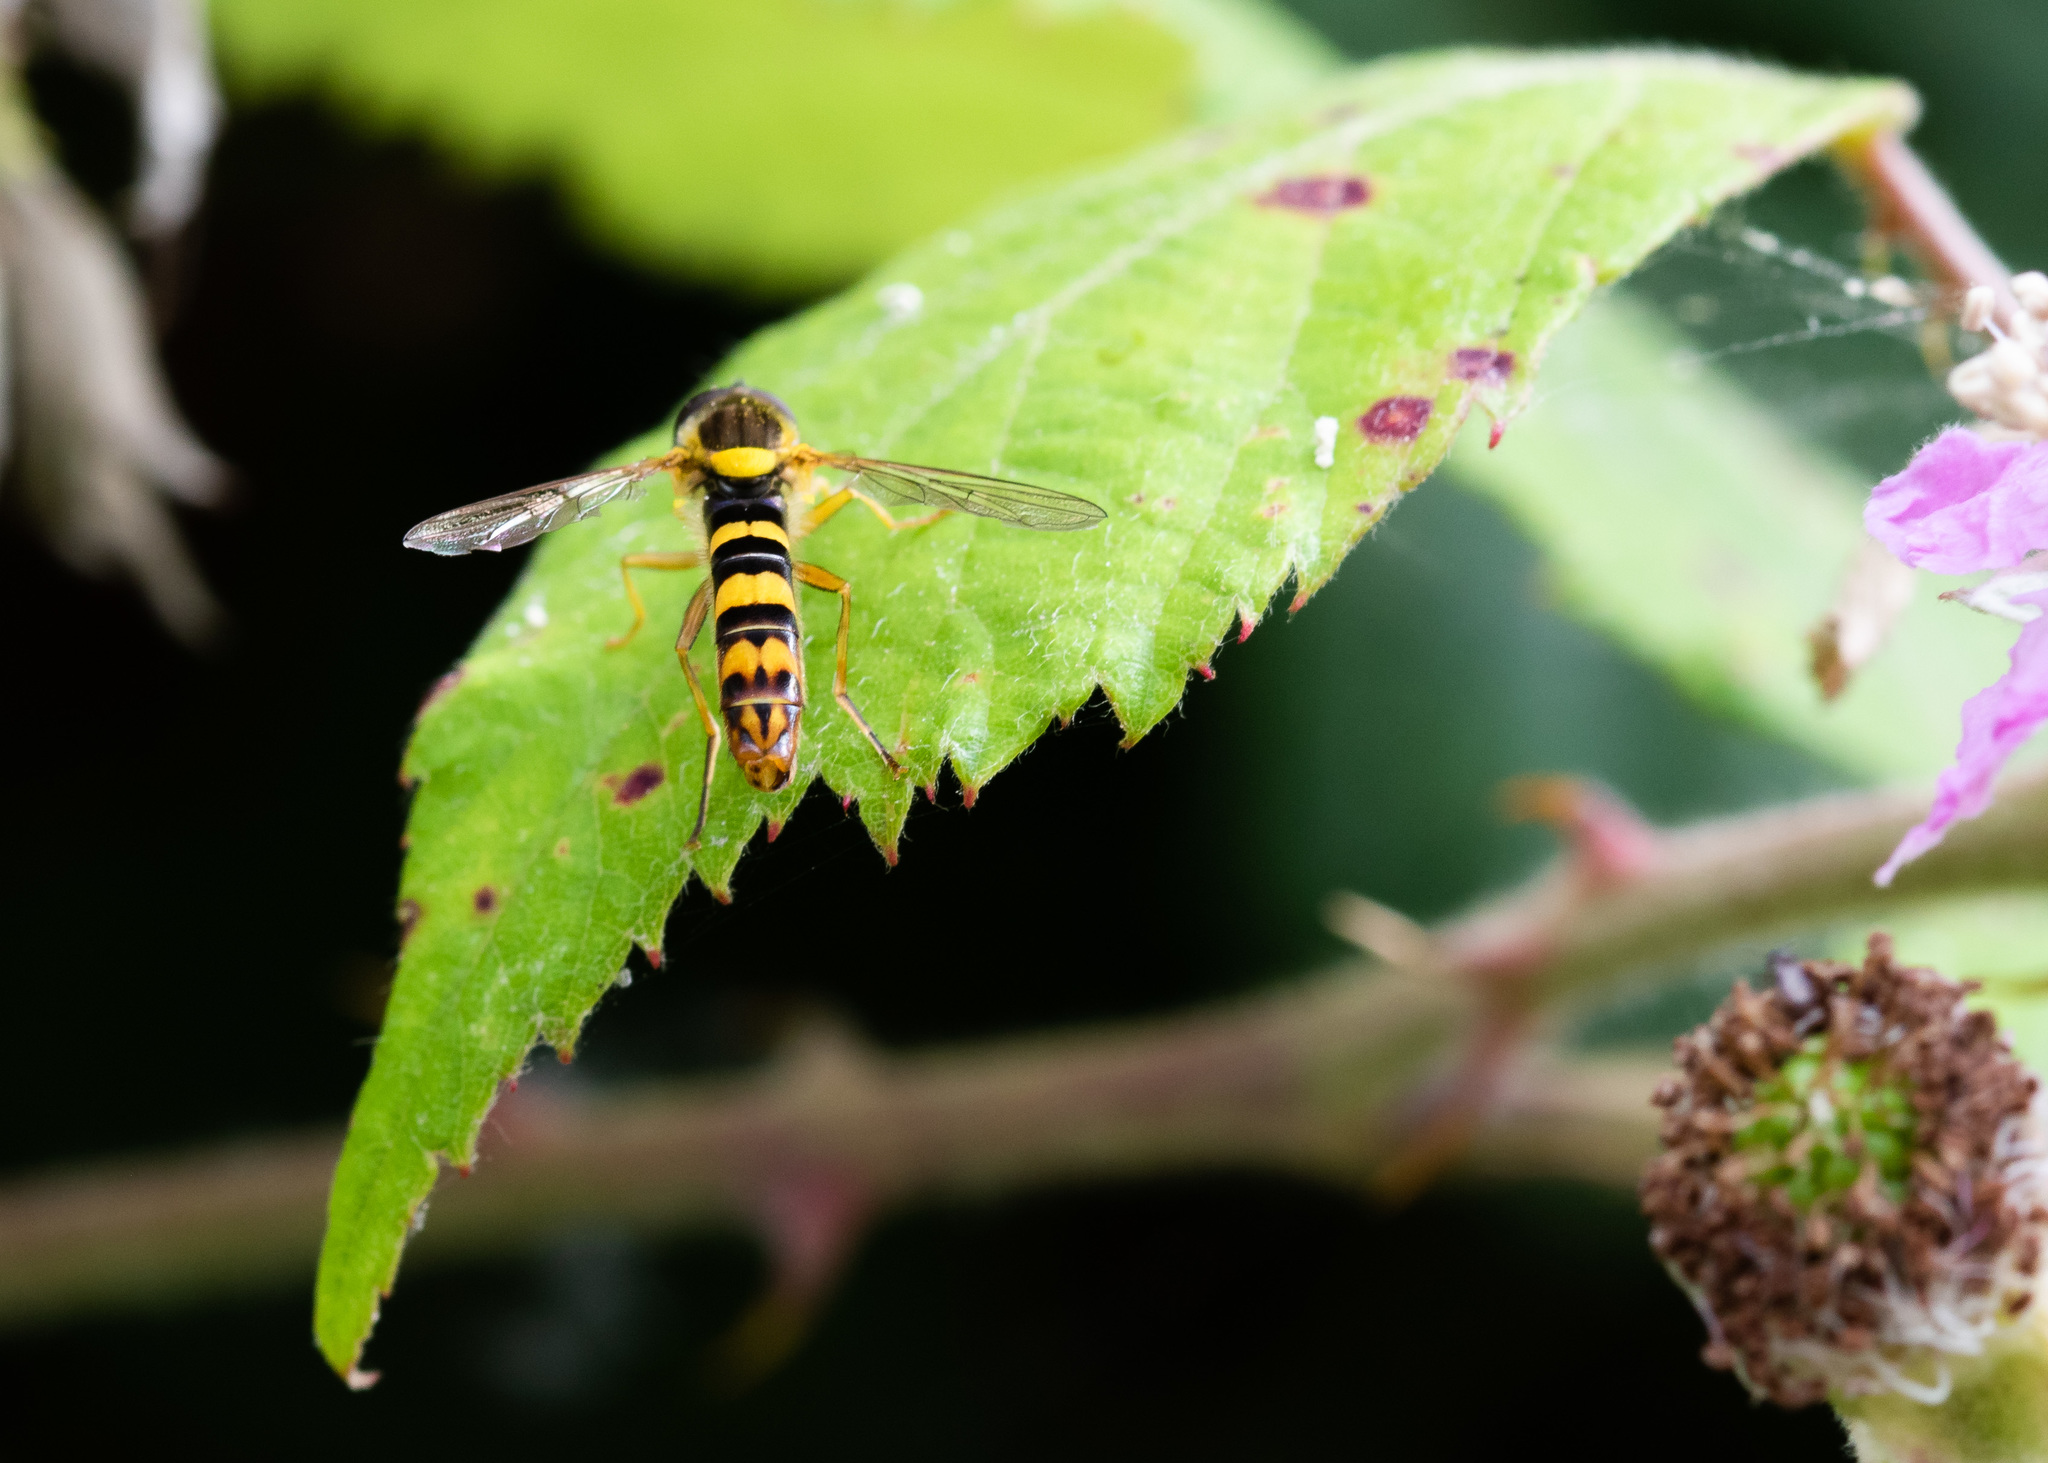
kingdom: Animalia
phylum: Arthropoda
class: Insecta
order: Diptera
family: Syrphidae
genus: Sphaerophoria
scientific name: Sphaerophoria scripta
